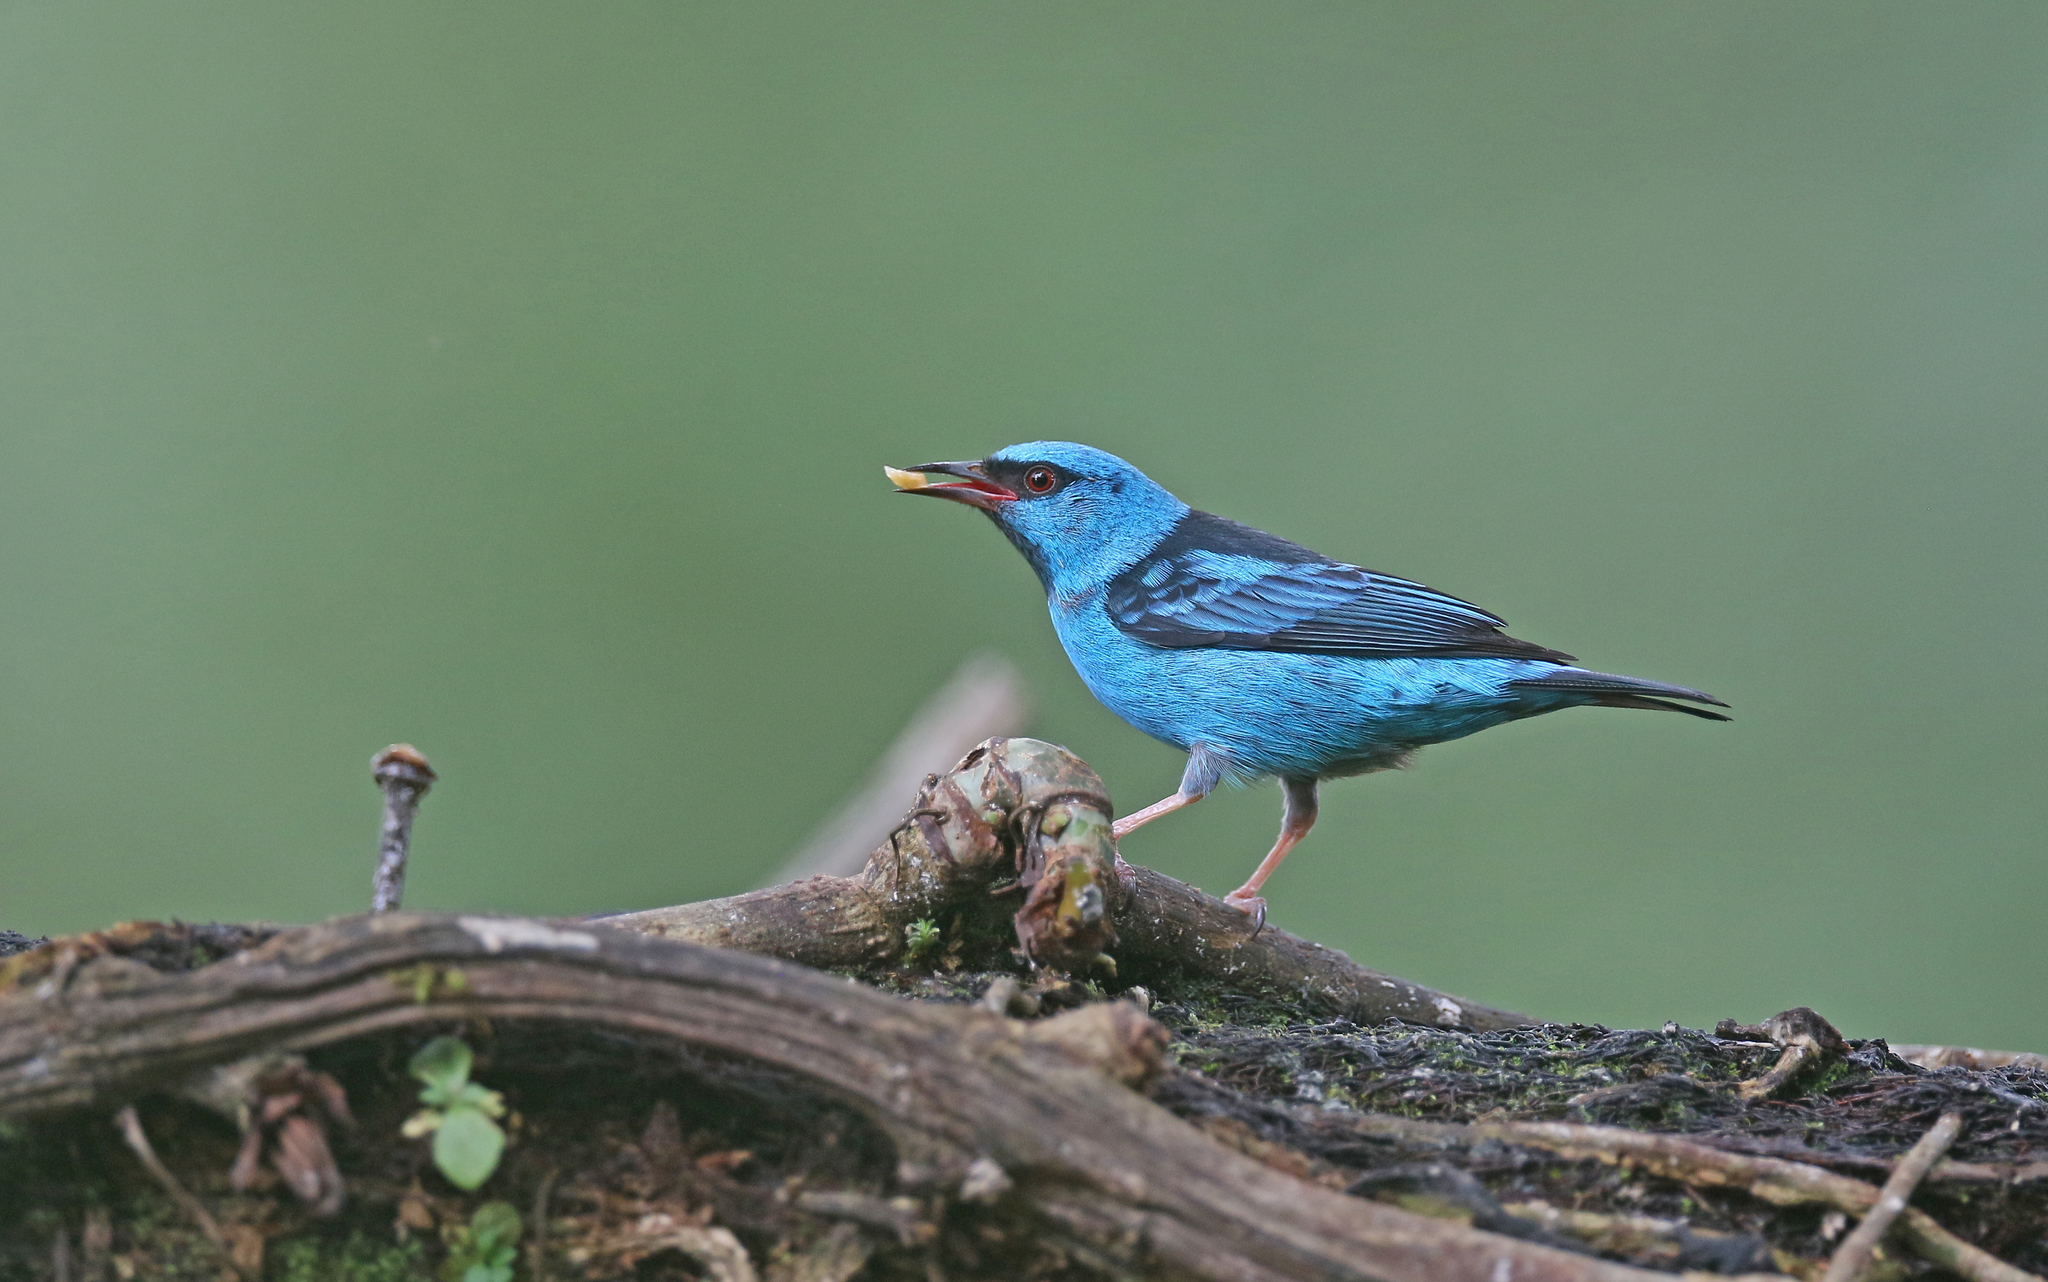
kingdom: Animalia
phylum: Chordata
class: Aves
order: Passeriformes
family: Thraupidae
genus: Dacnis
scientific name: Dacnis cayana
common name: Blue dacnis
